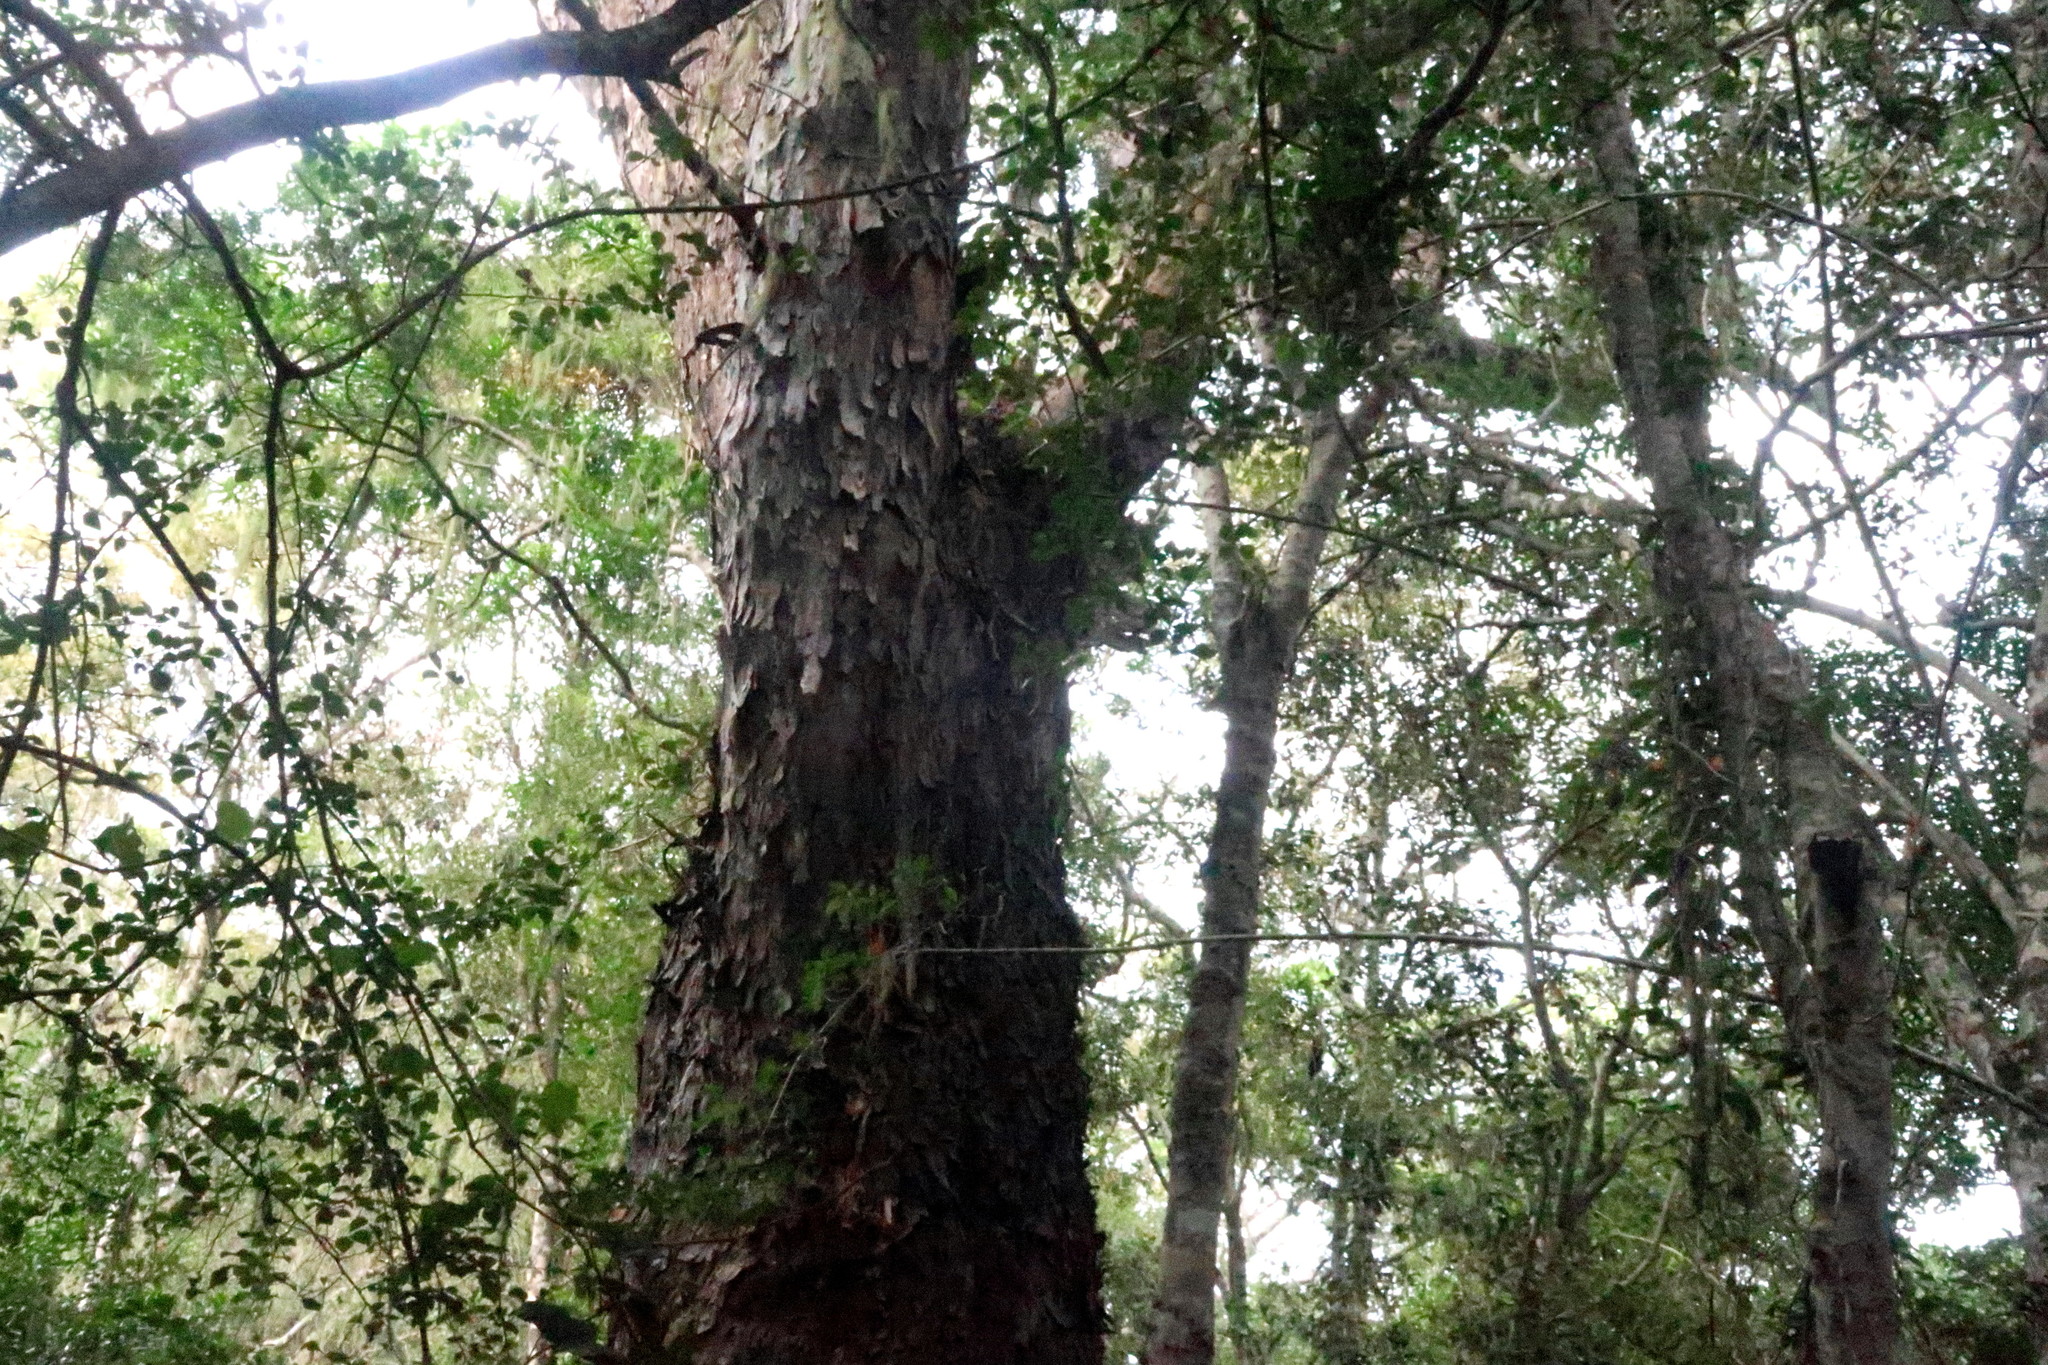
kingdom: Plantae
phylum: Tracheophyta
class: Pinopsida
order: Pinales
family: Podocarpaceae
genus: Afrocarpus
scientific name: Afrocarpus falcatus
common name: Bastard yellowwood
